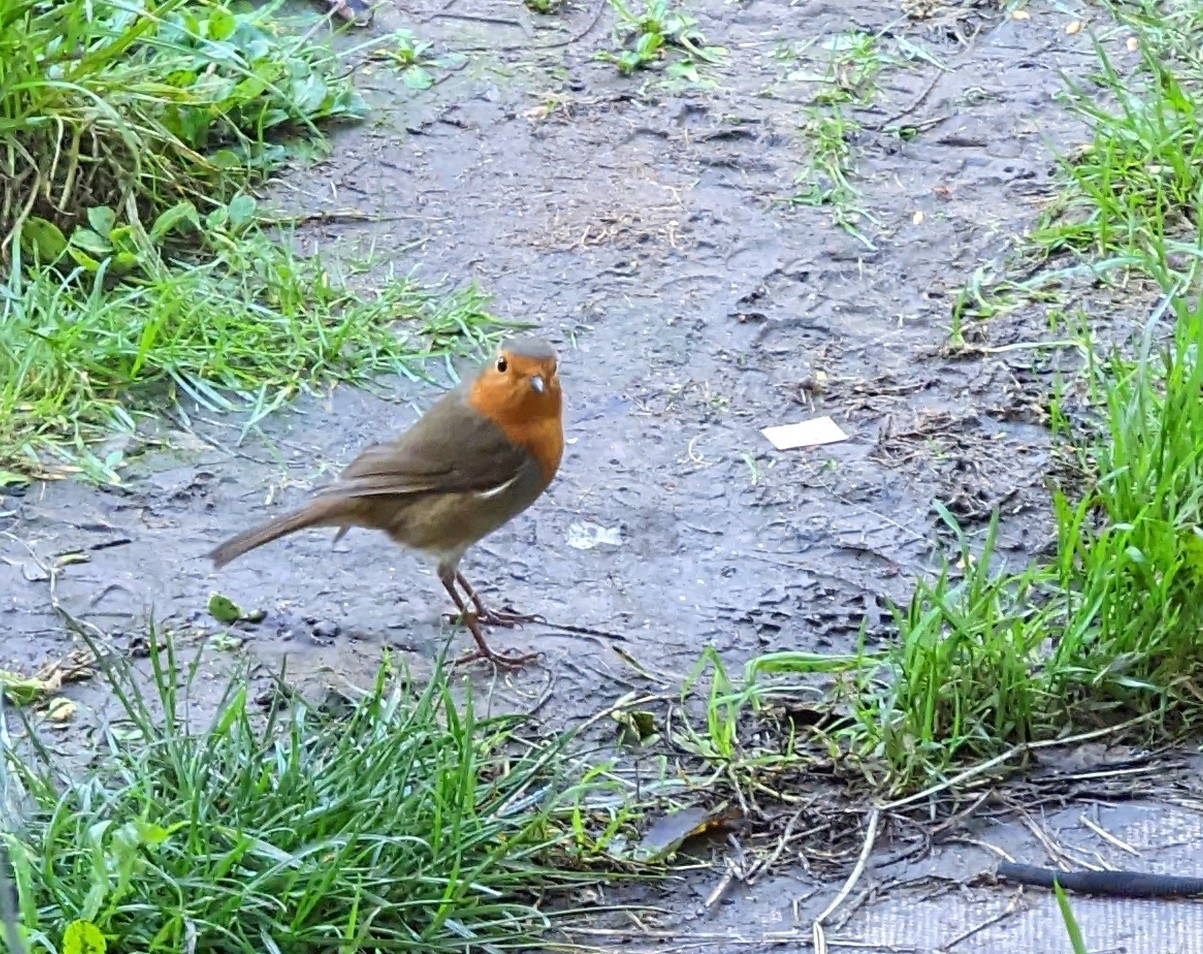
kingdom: Animalia
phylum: Chordata
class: Aves
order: Passeriformes
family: Muscicapidae
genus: Erithacus
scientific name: Erithacus rubecula
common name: European robin
